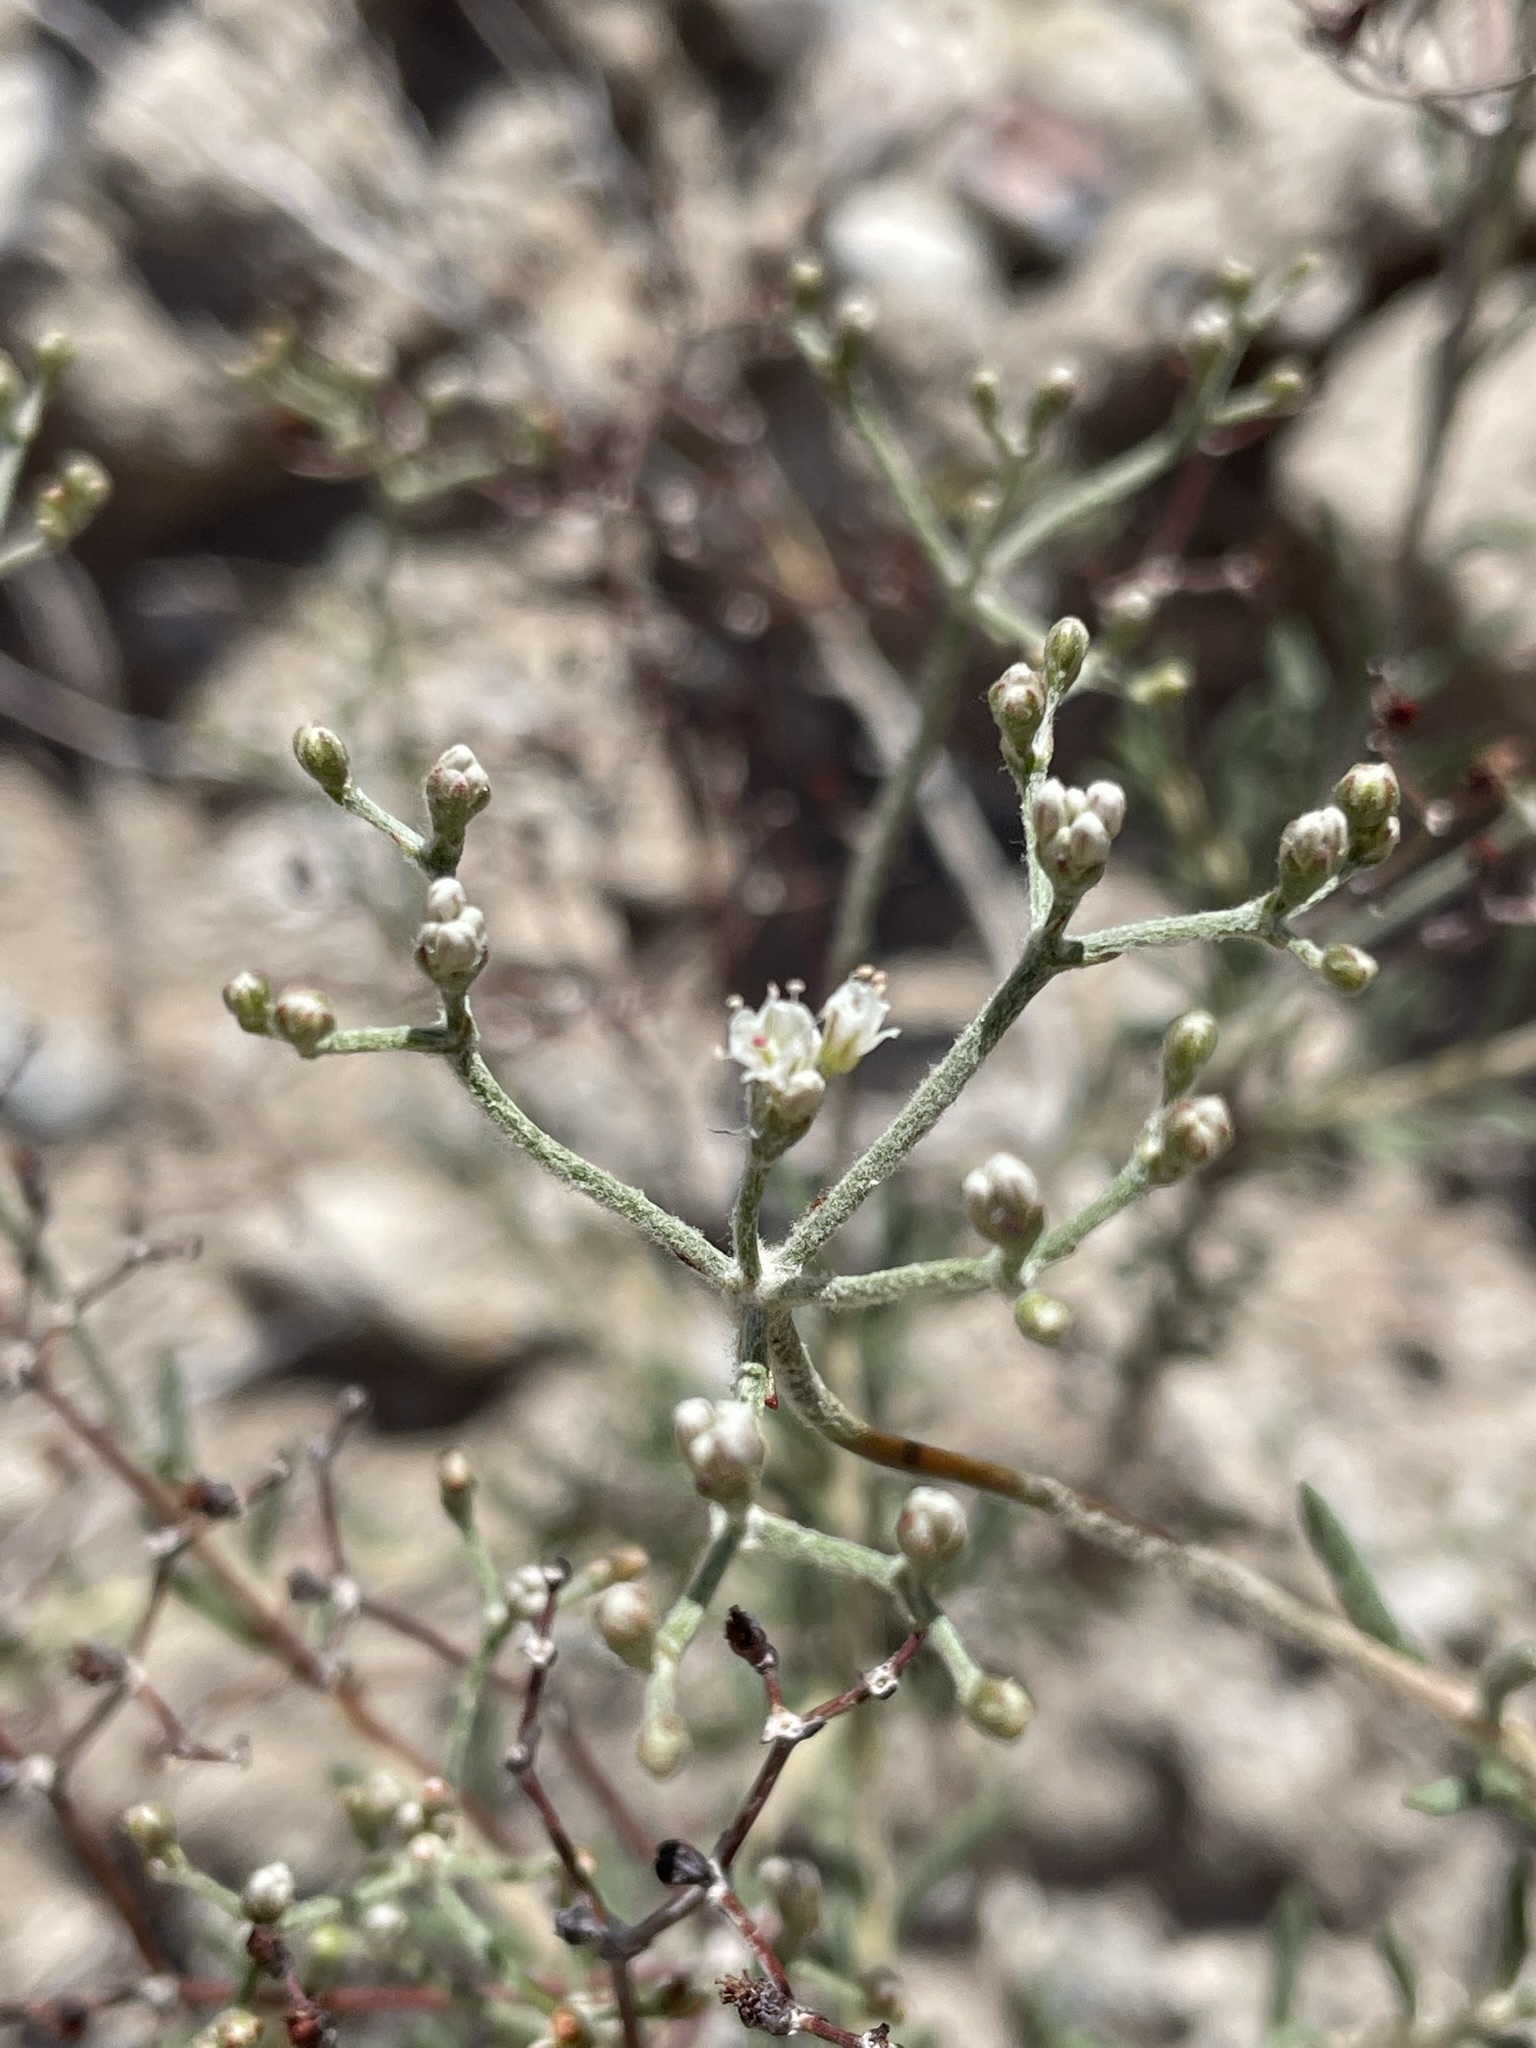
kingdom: Plantae
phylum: Tracheophyta
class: Magnoliopsida
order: Caryophyllales
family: Polygonaceae
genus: Eriogonum
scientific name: Eriogonum microtheca
